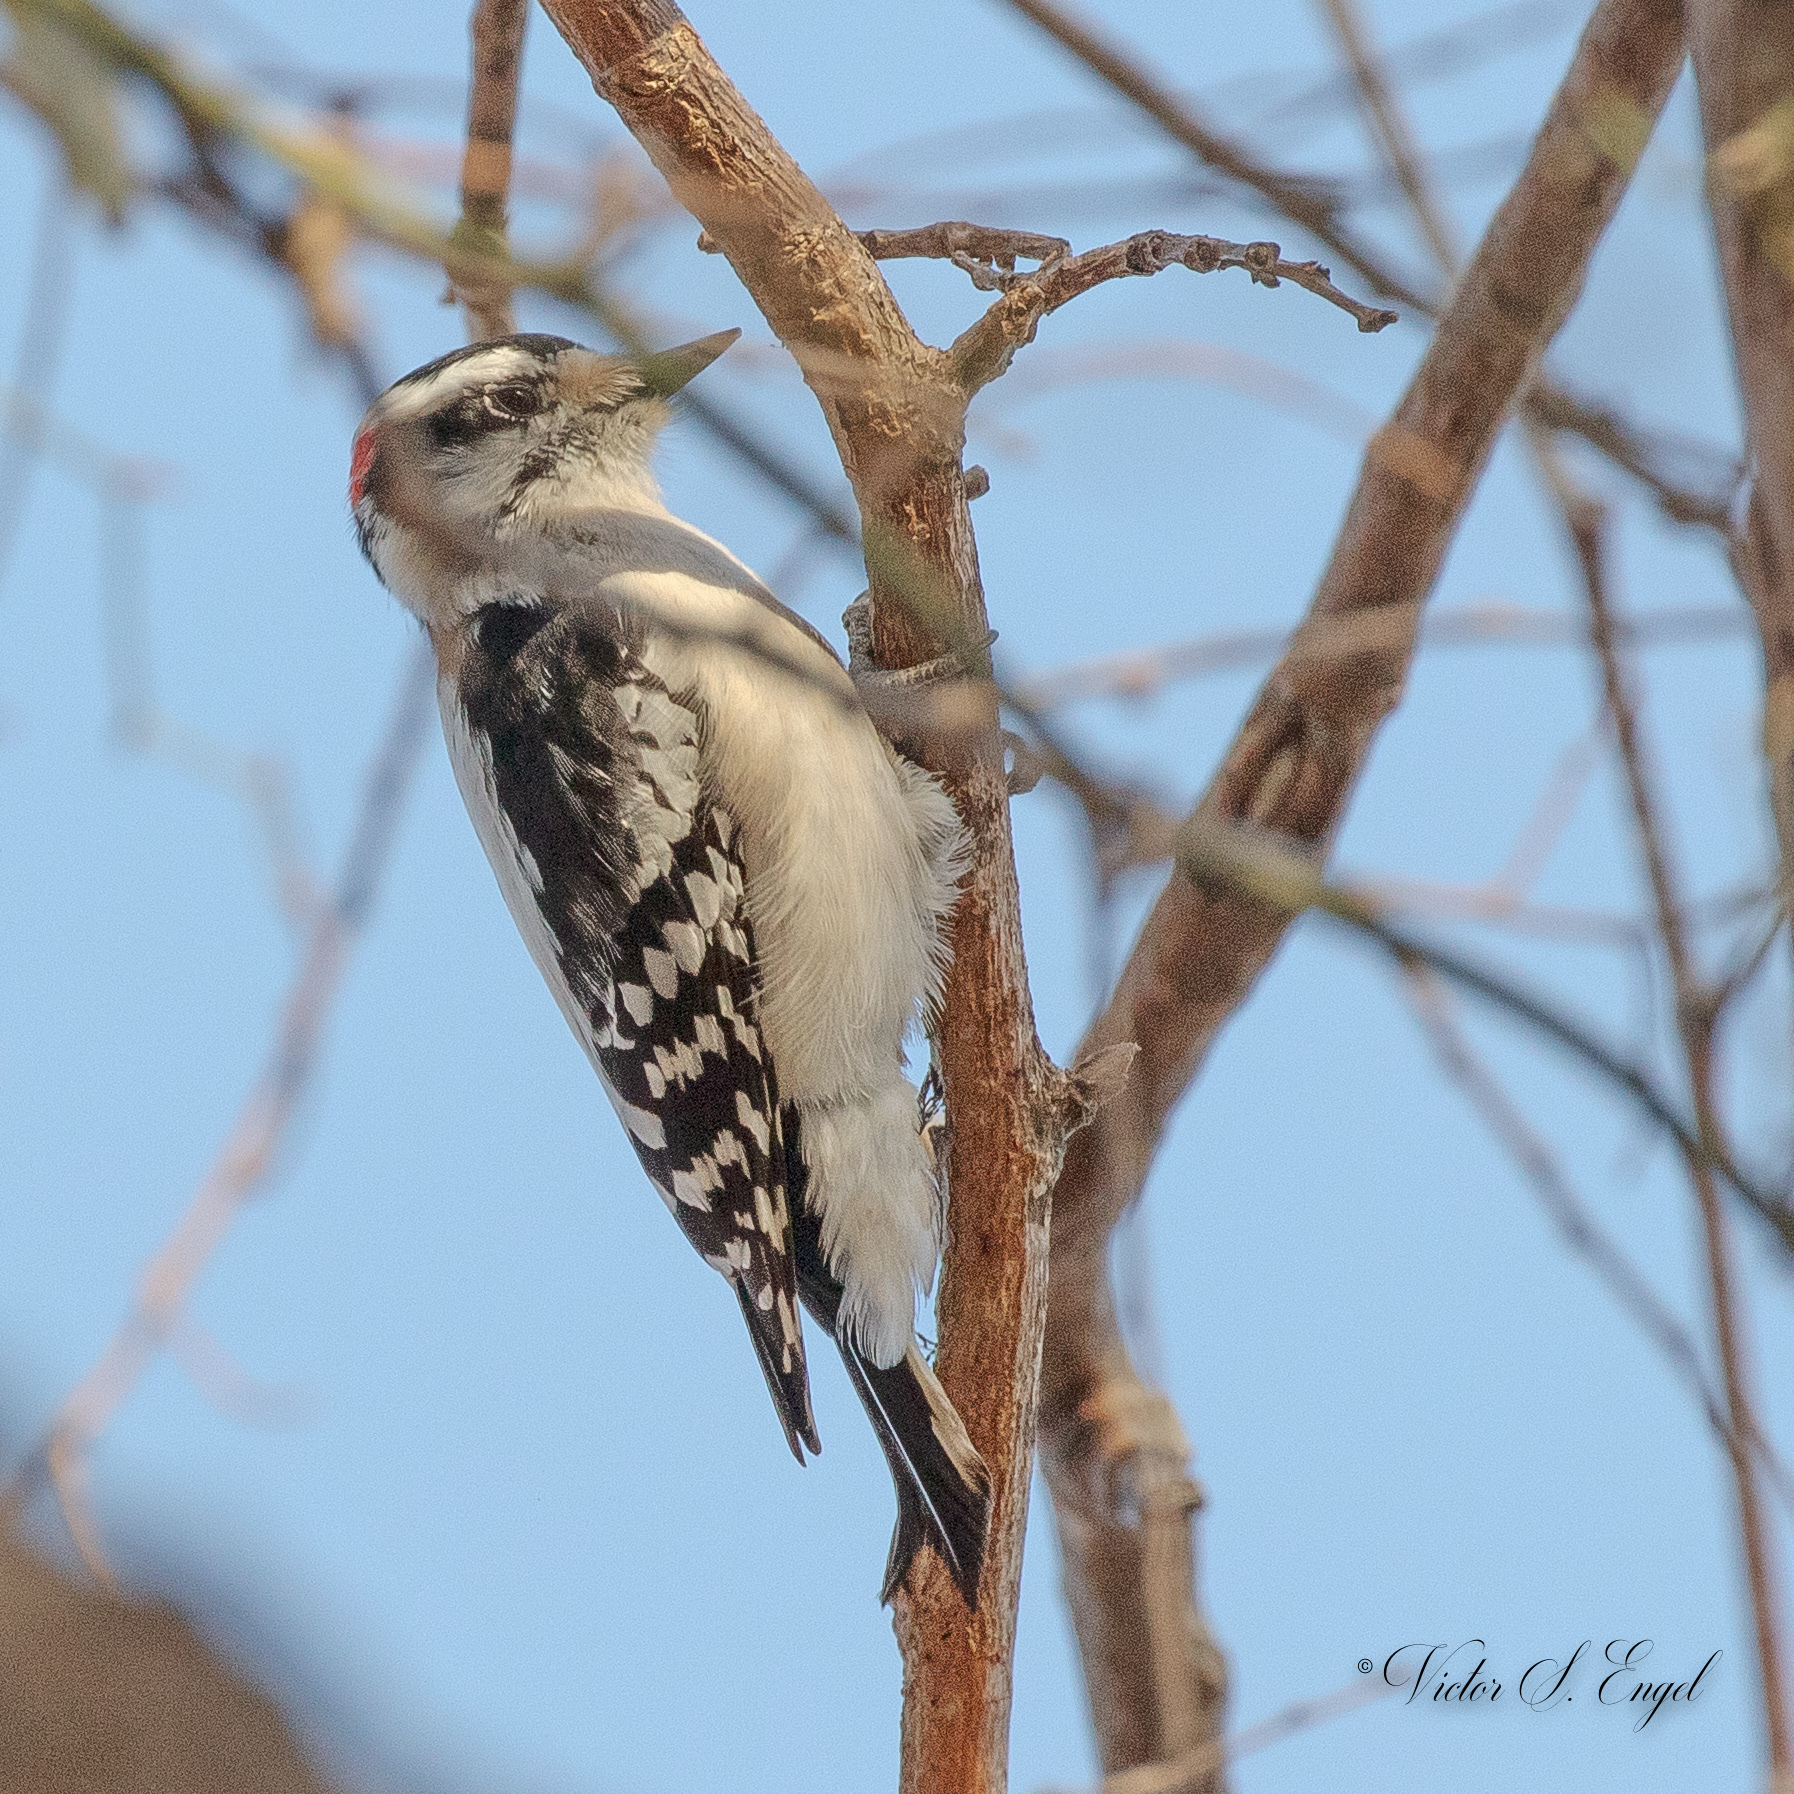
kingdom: Animalia
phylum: Chordata
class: Aves
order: Piciformes
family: Picidae
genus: Dryobates
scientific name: Dryobates pubescens
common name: Downy woodpecker
